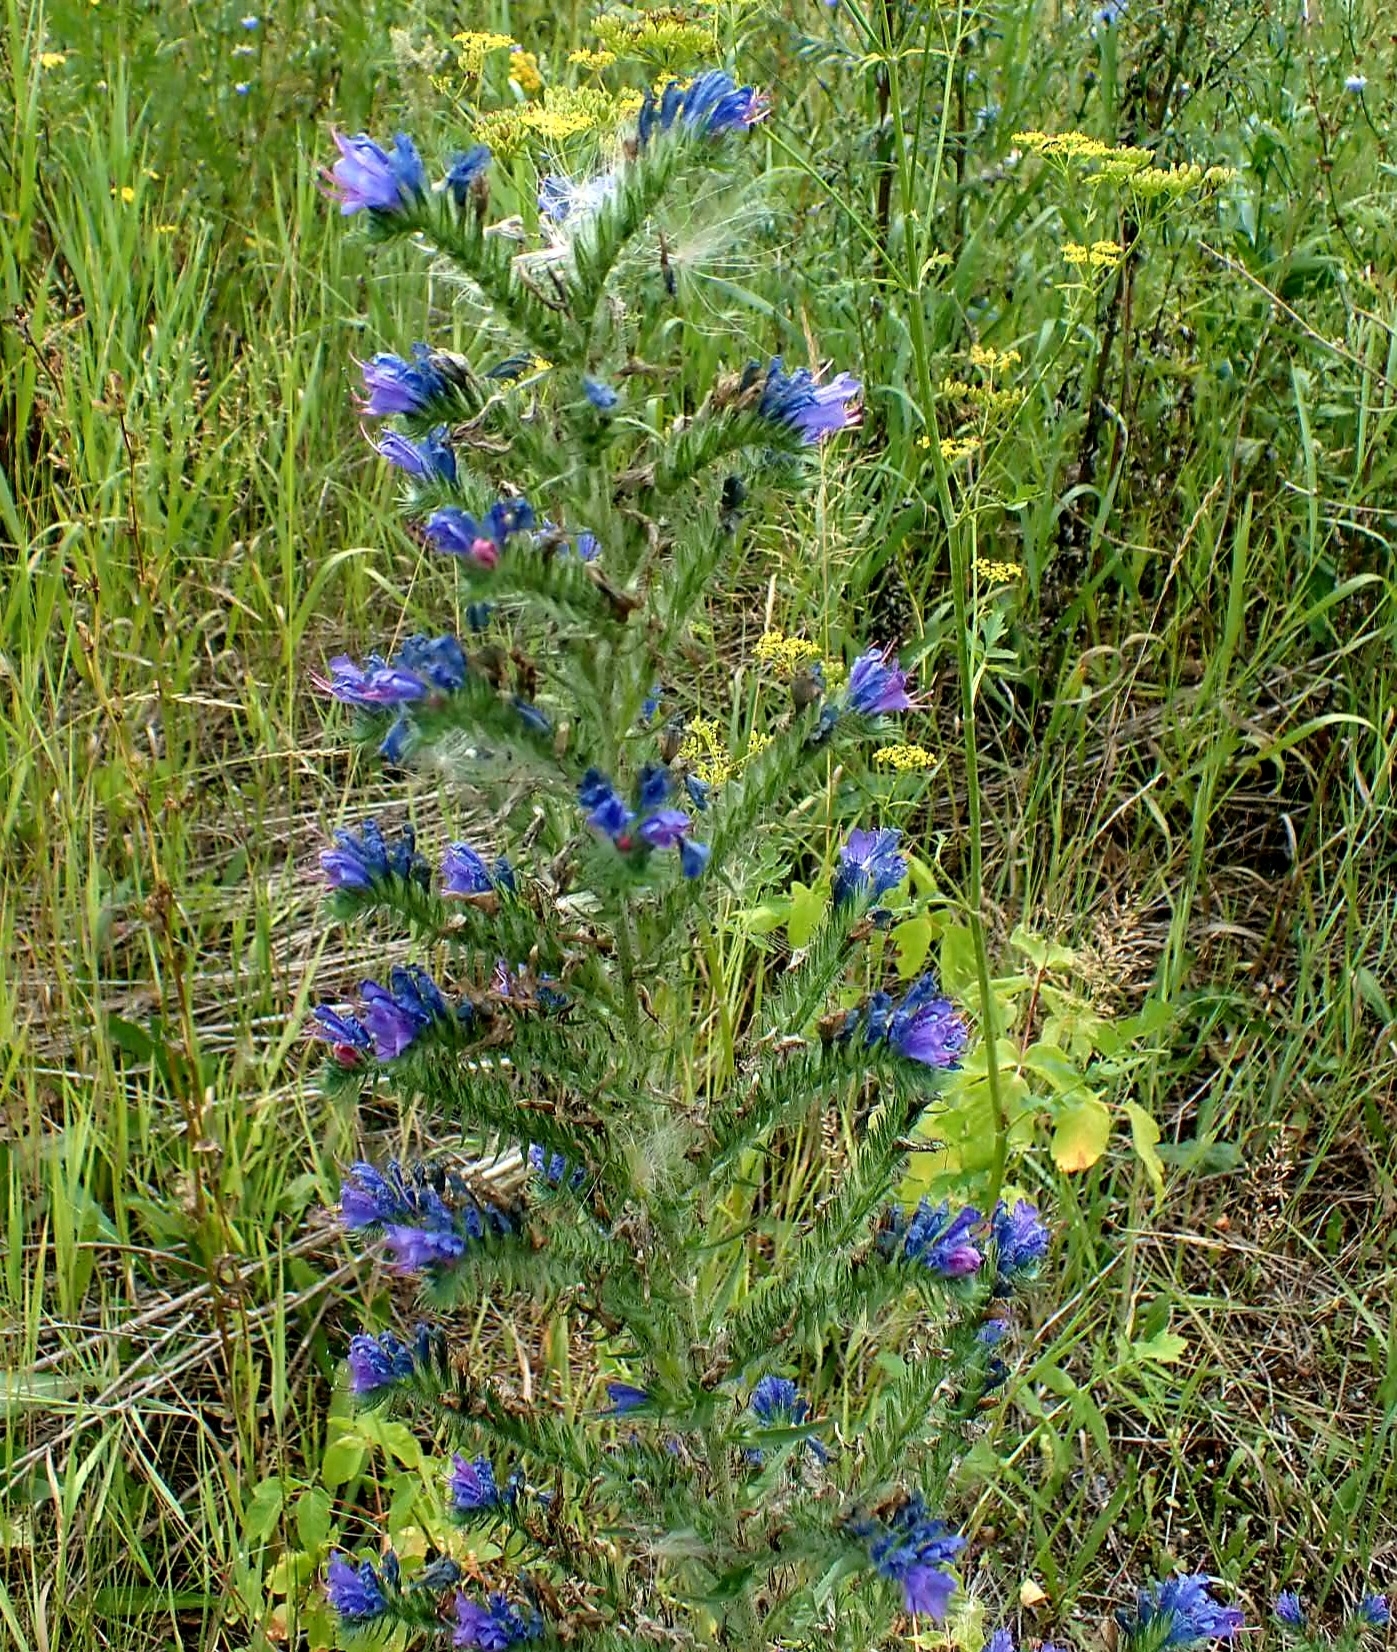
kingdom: Plantae
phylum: Tracheophyta
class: Magnoliopsida
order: Boraginales
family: Boraginaceae
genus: Echium
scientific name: Echium vulgare
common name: Common viper's bugloss
